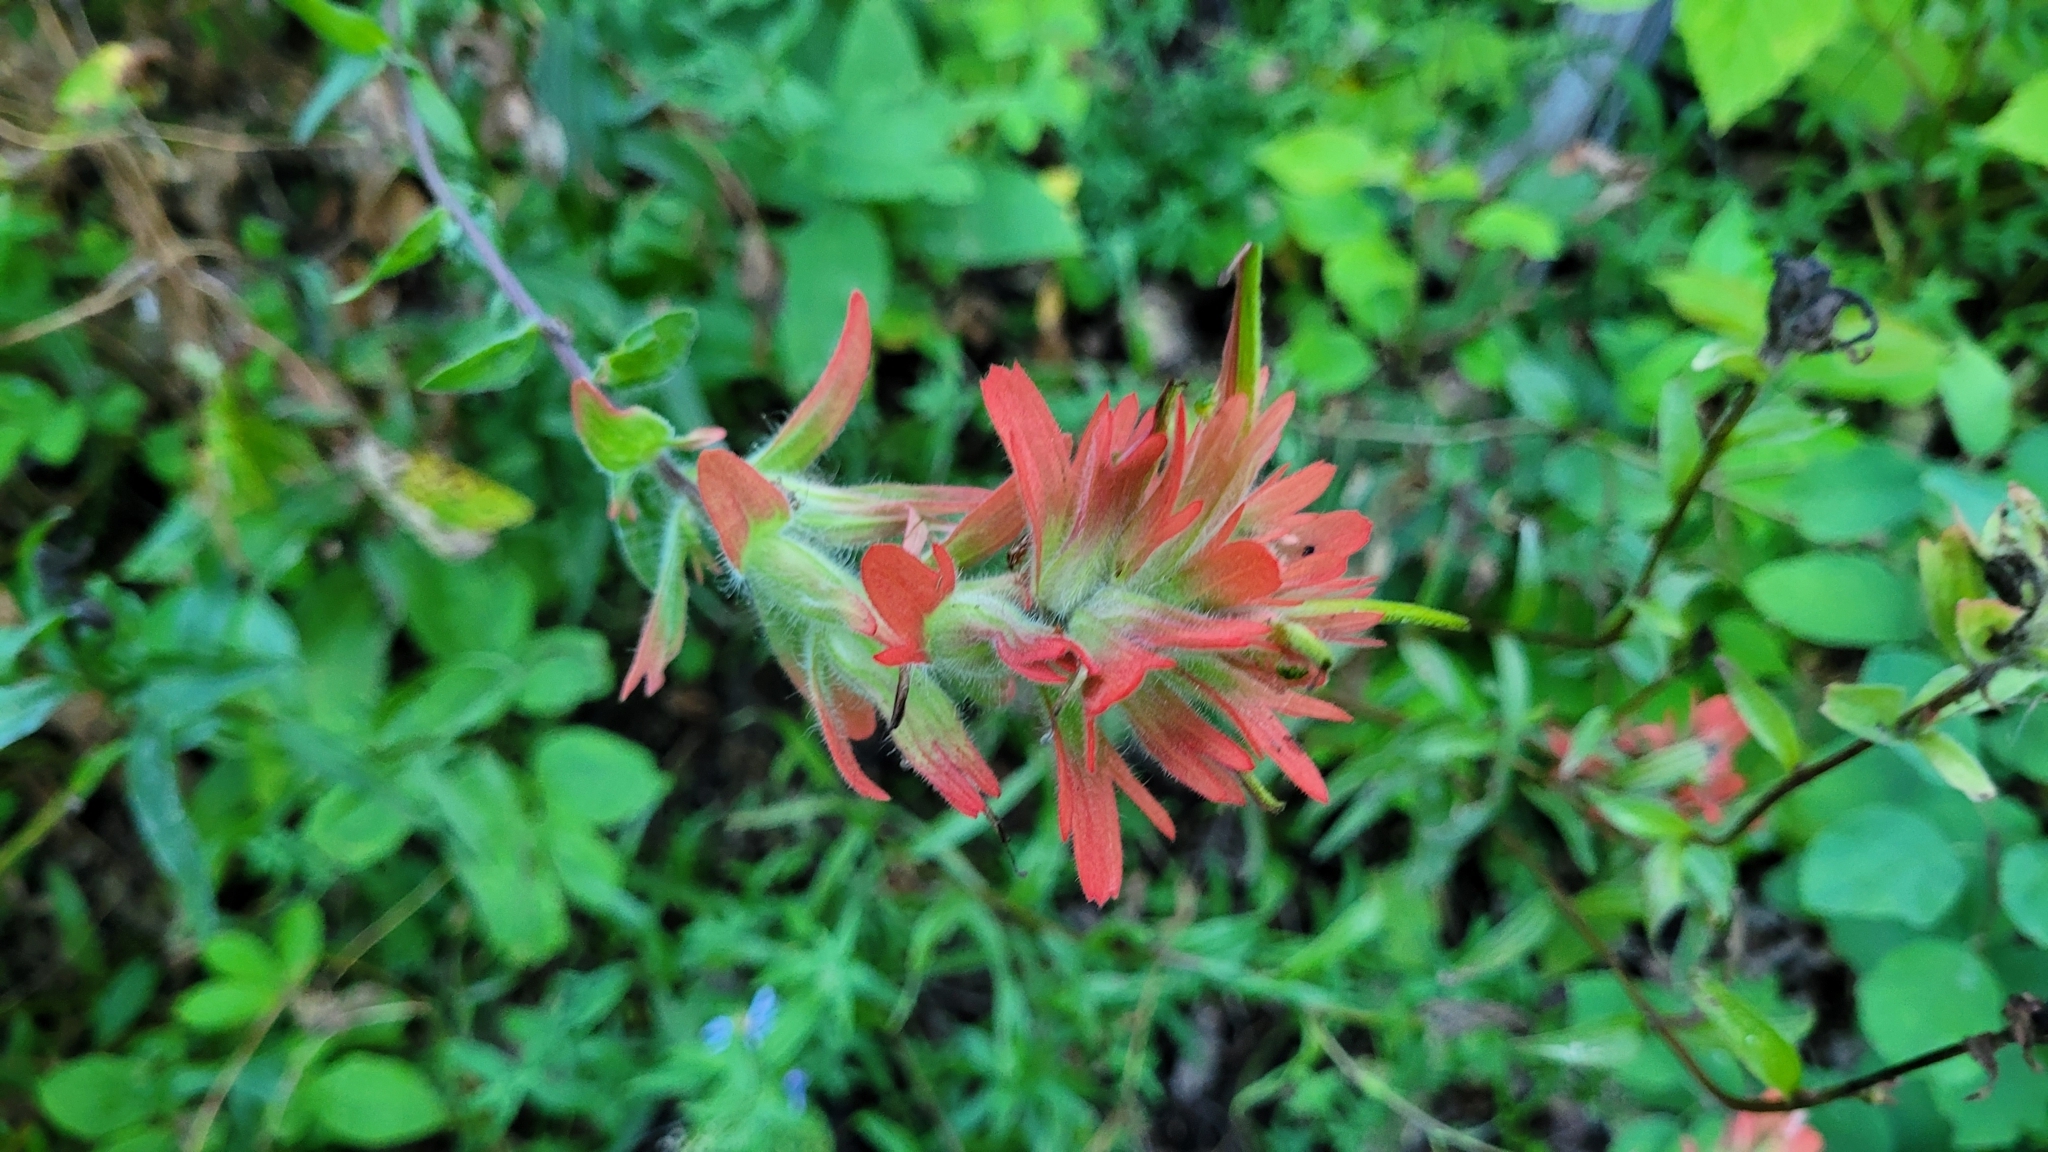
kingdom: Plantae
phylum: Tracheophyta
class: Magnoliopsida
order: Lamiales
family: Orobanchaceae
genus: Castilleja
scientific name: Castilleja miniata
